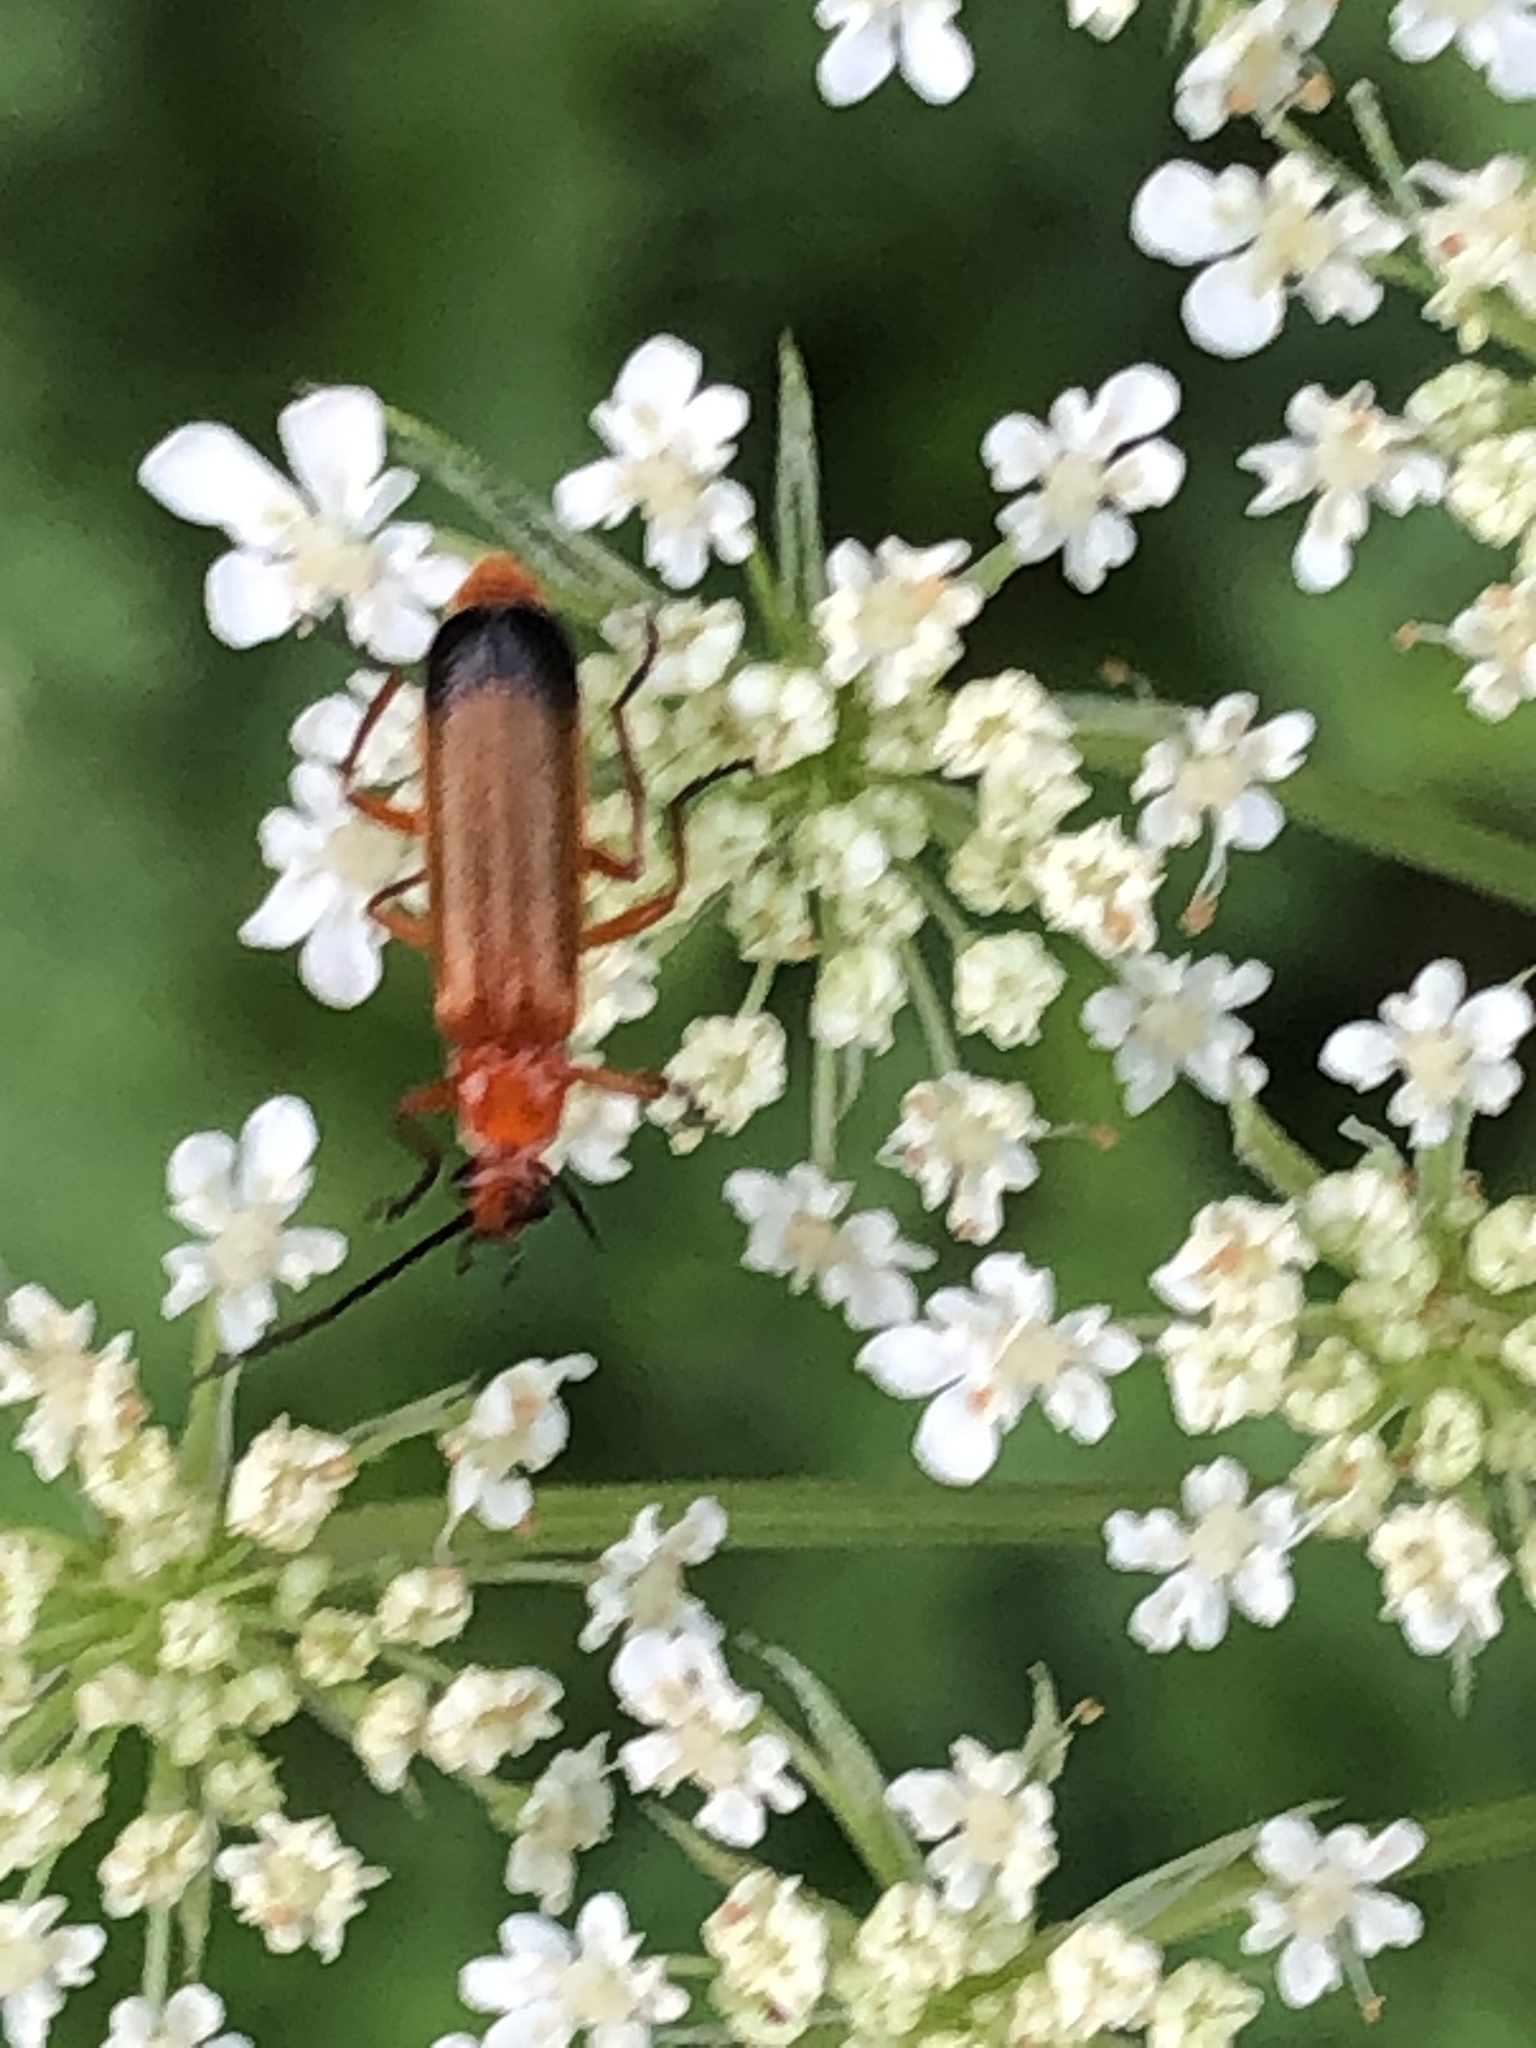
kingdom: Animalia
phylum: Arthropoda
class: Insecta
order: Coleoptera
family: Cantharidae
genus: Rhagonycha
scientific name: Rhagonycha fulva
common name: Common red soldier beetle
